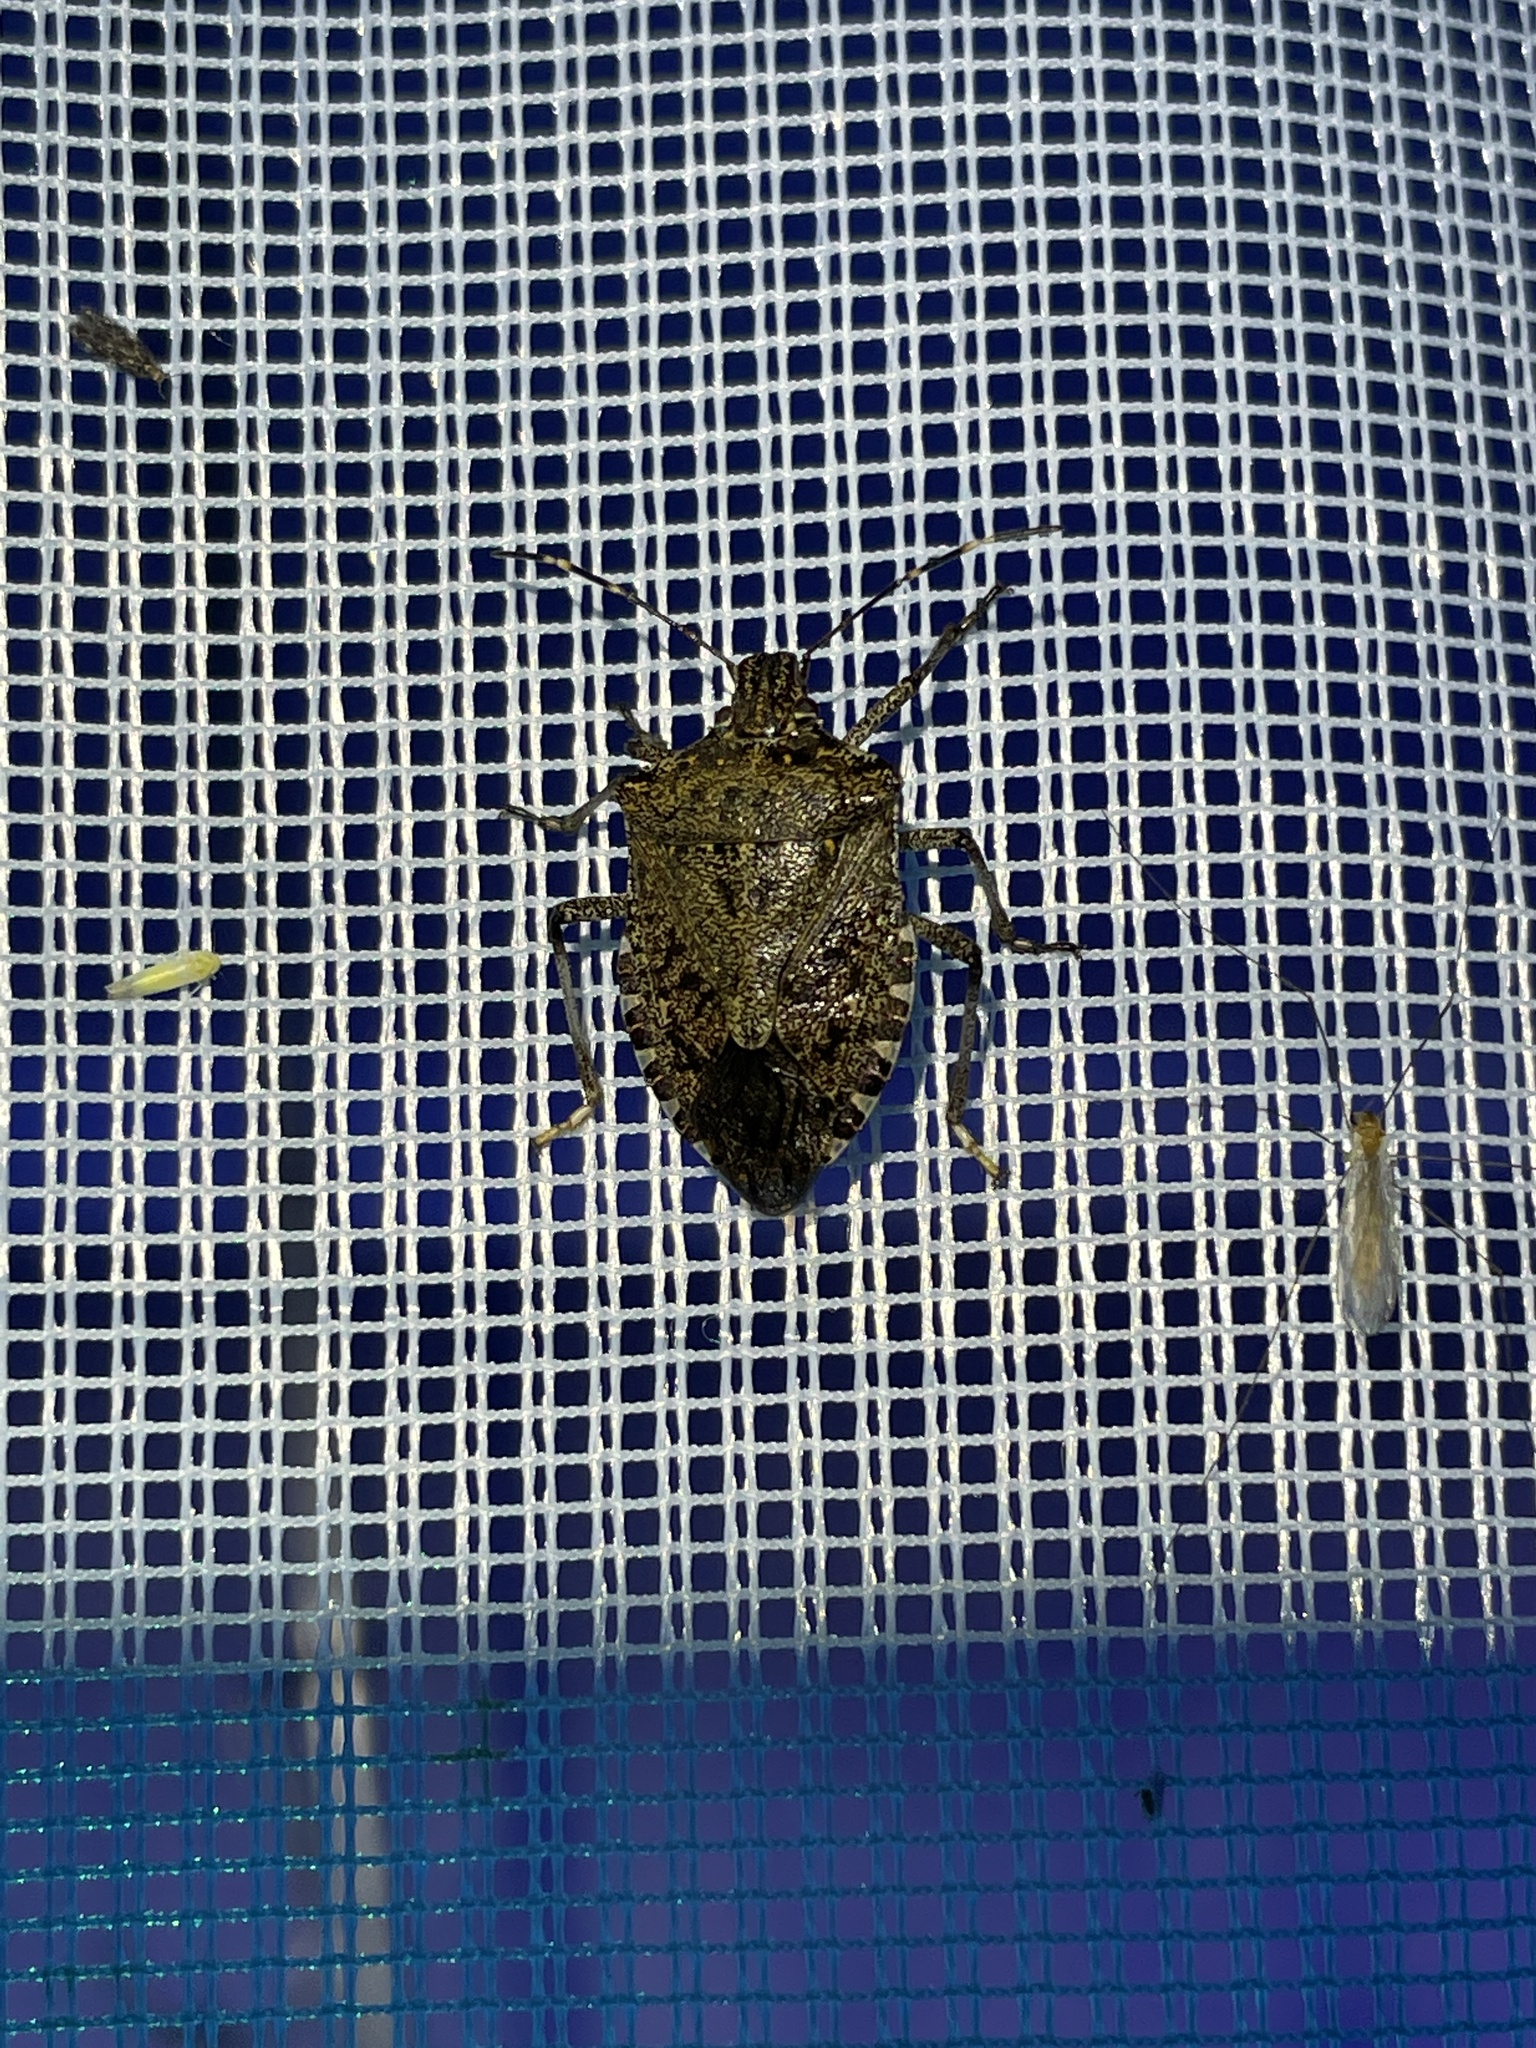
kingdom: Animalia
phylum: Arthropoda
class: Insecta
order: Hemiptera
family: Pentatomidae
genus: Halyomorpha
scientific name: Halyomorpha halys
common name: Brown marmorated stink bug
